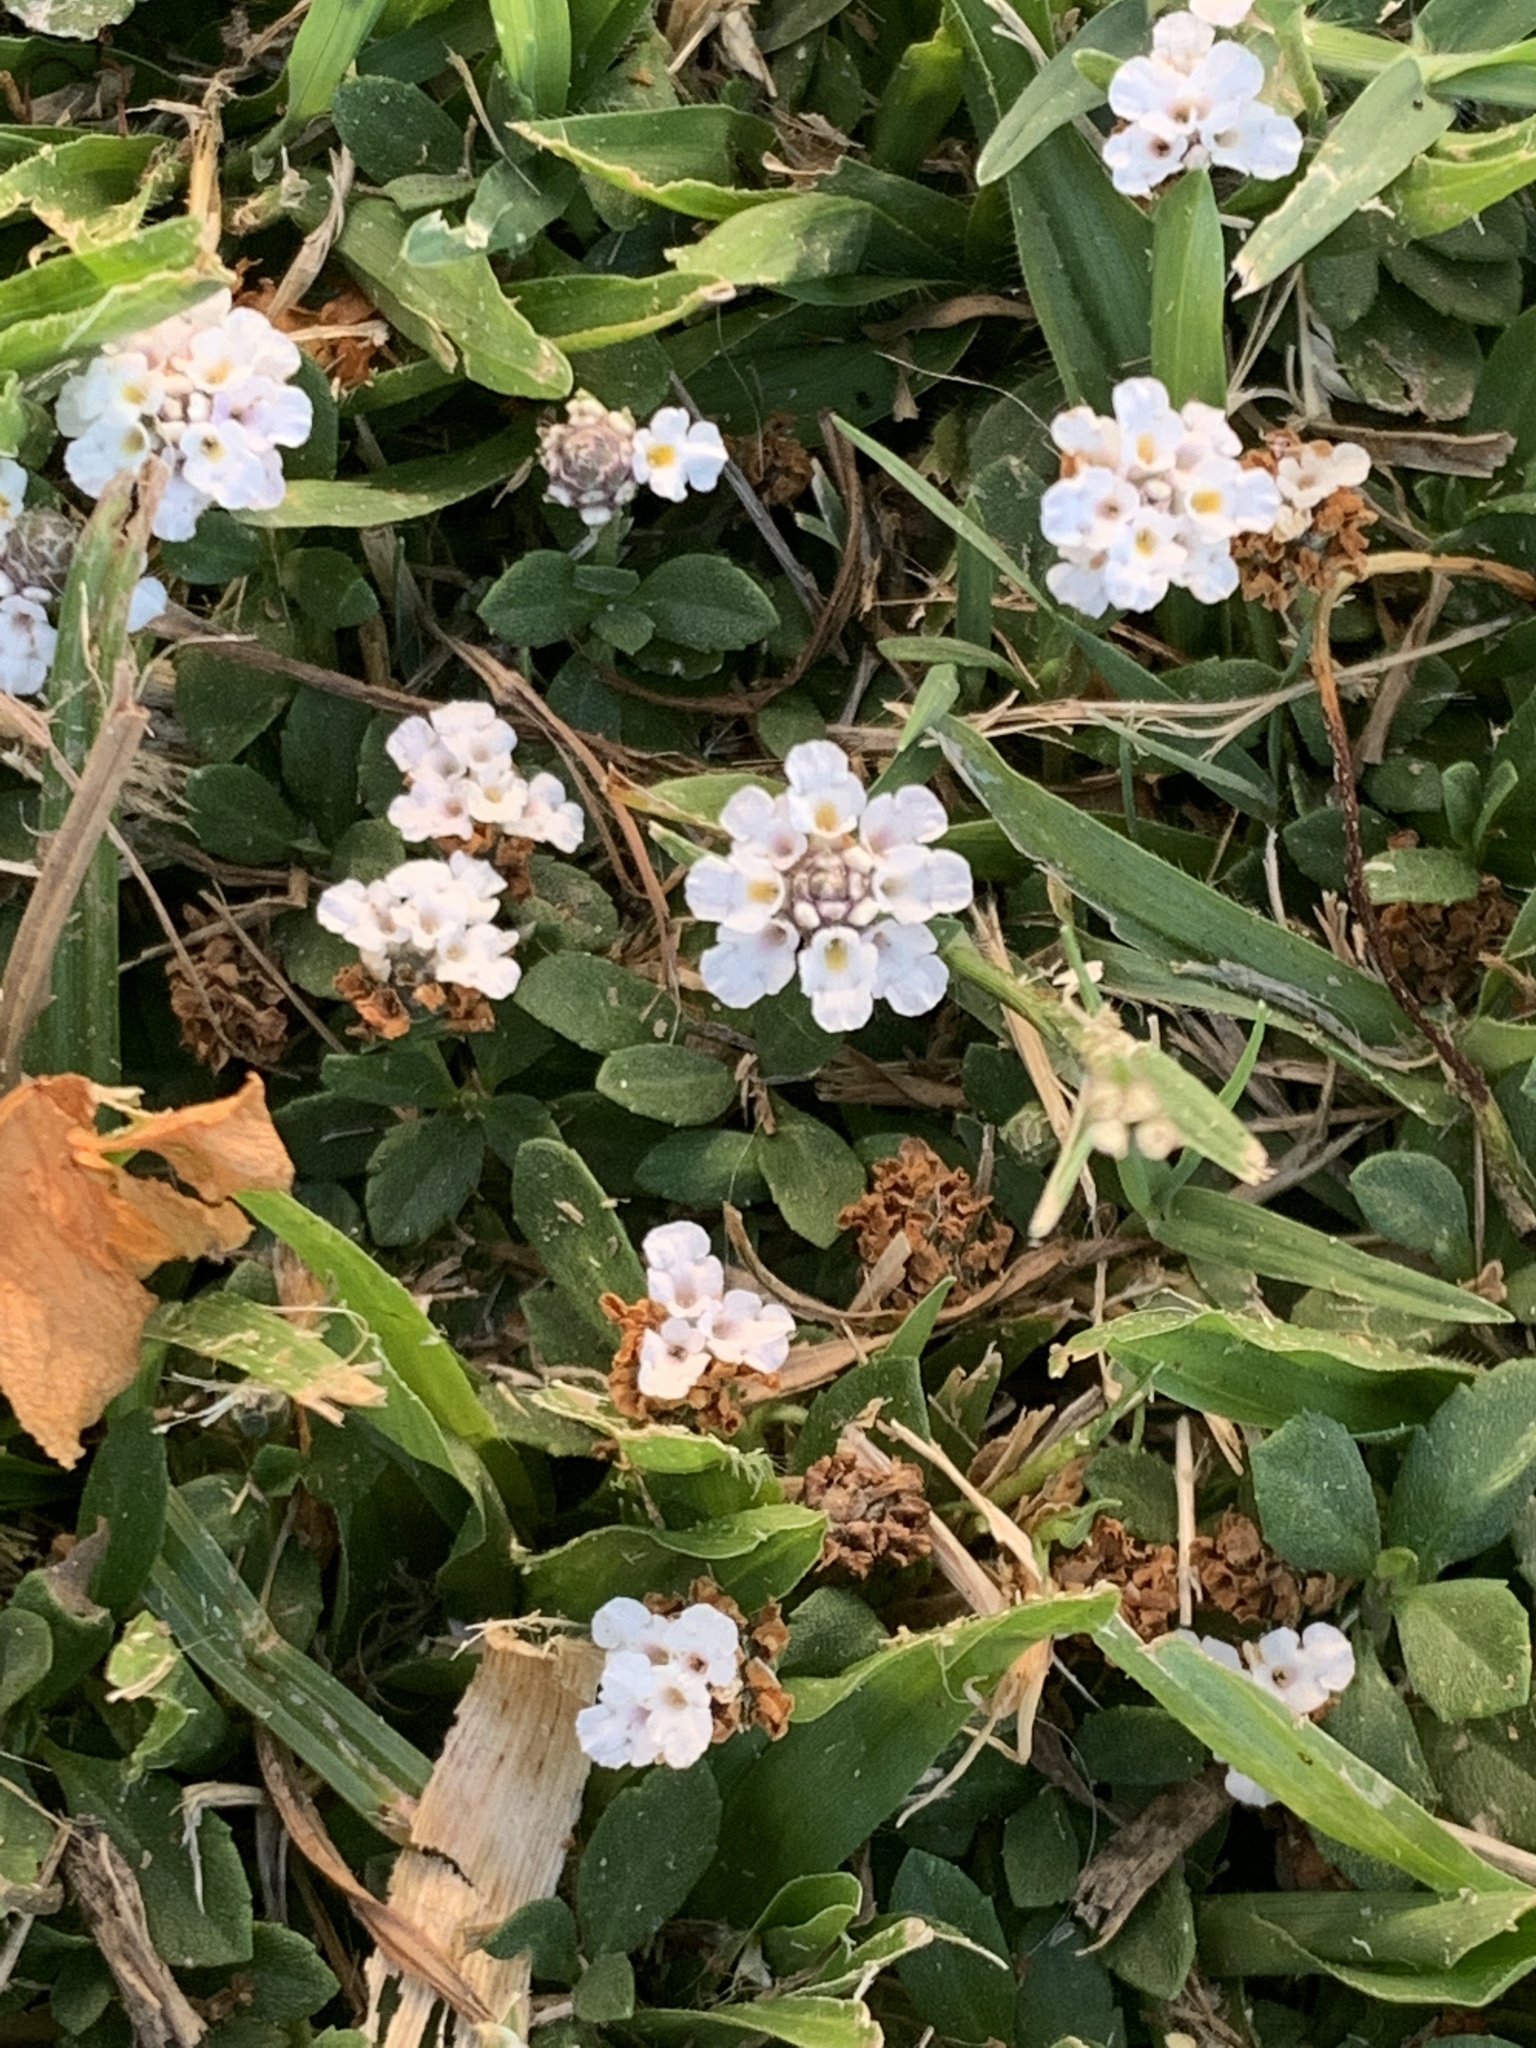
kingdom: Plantae
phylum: Tracheophyta
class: Magnoliopsida
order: Lamiales
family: Verbenaceae
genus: Phyla
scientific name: Phyla nodiflora
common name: Frogfruit
